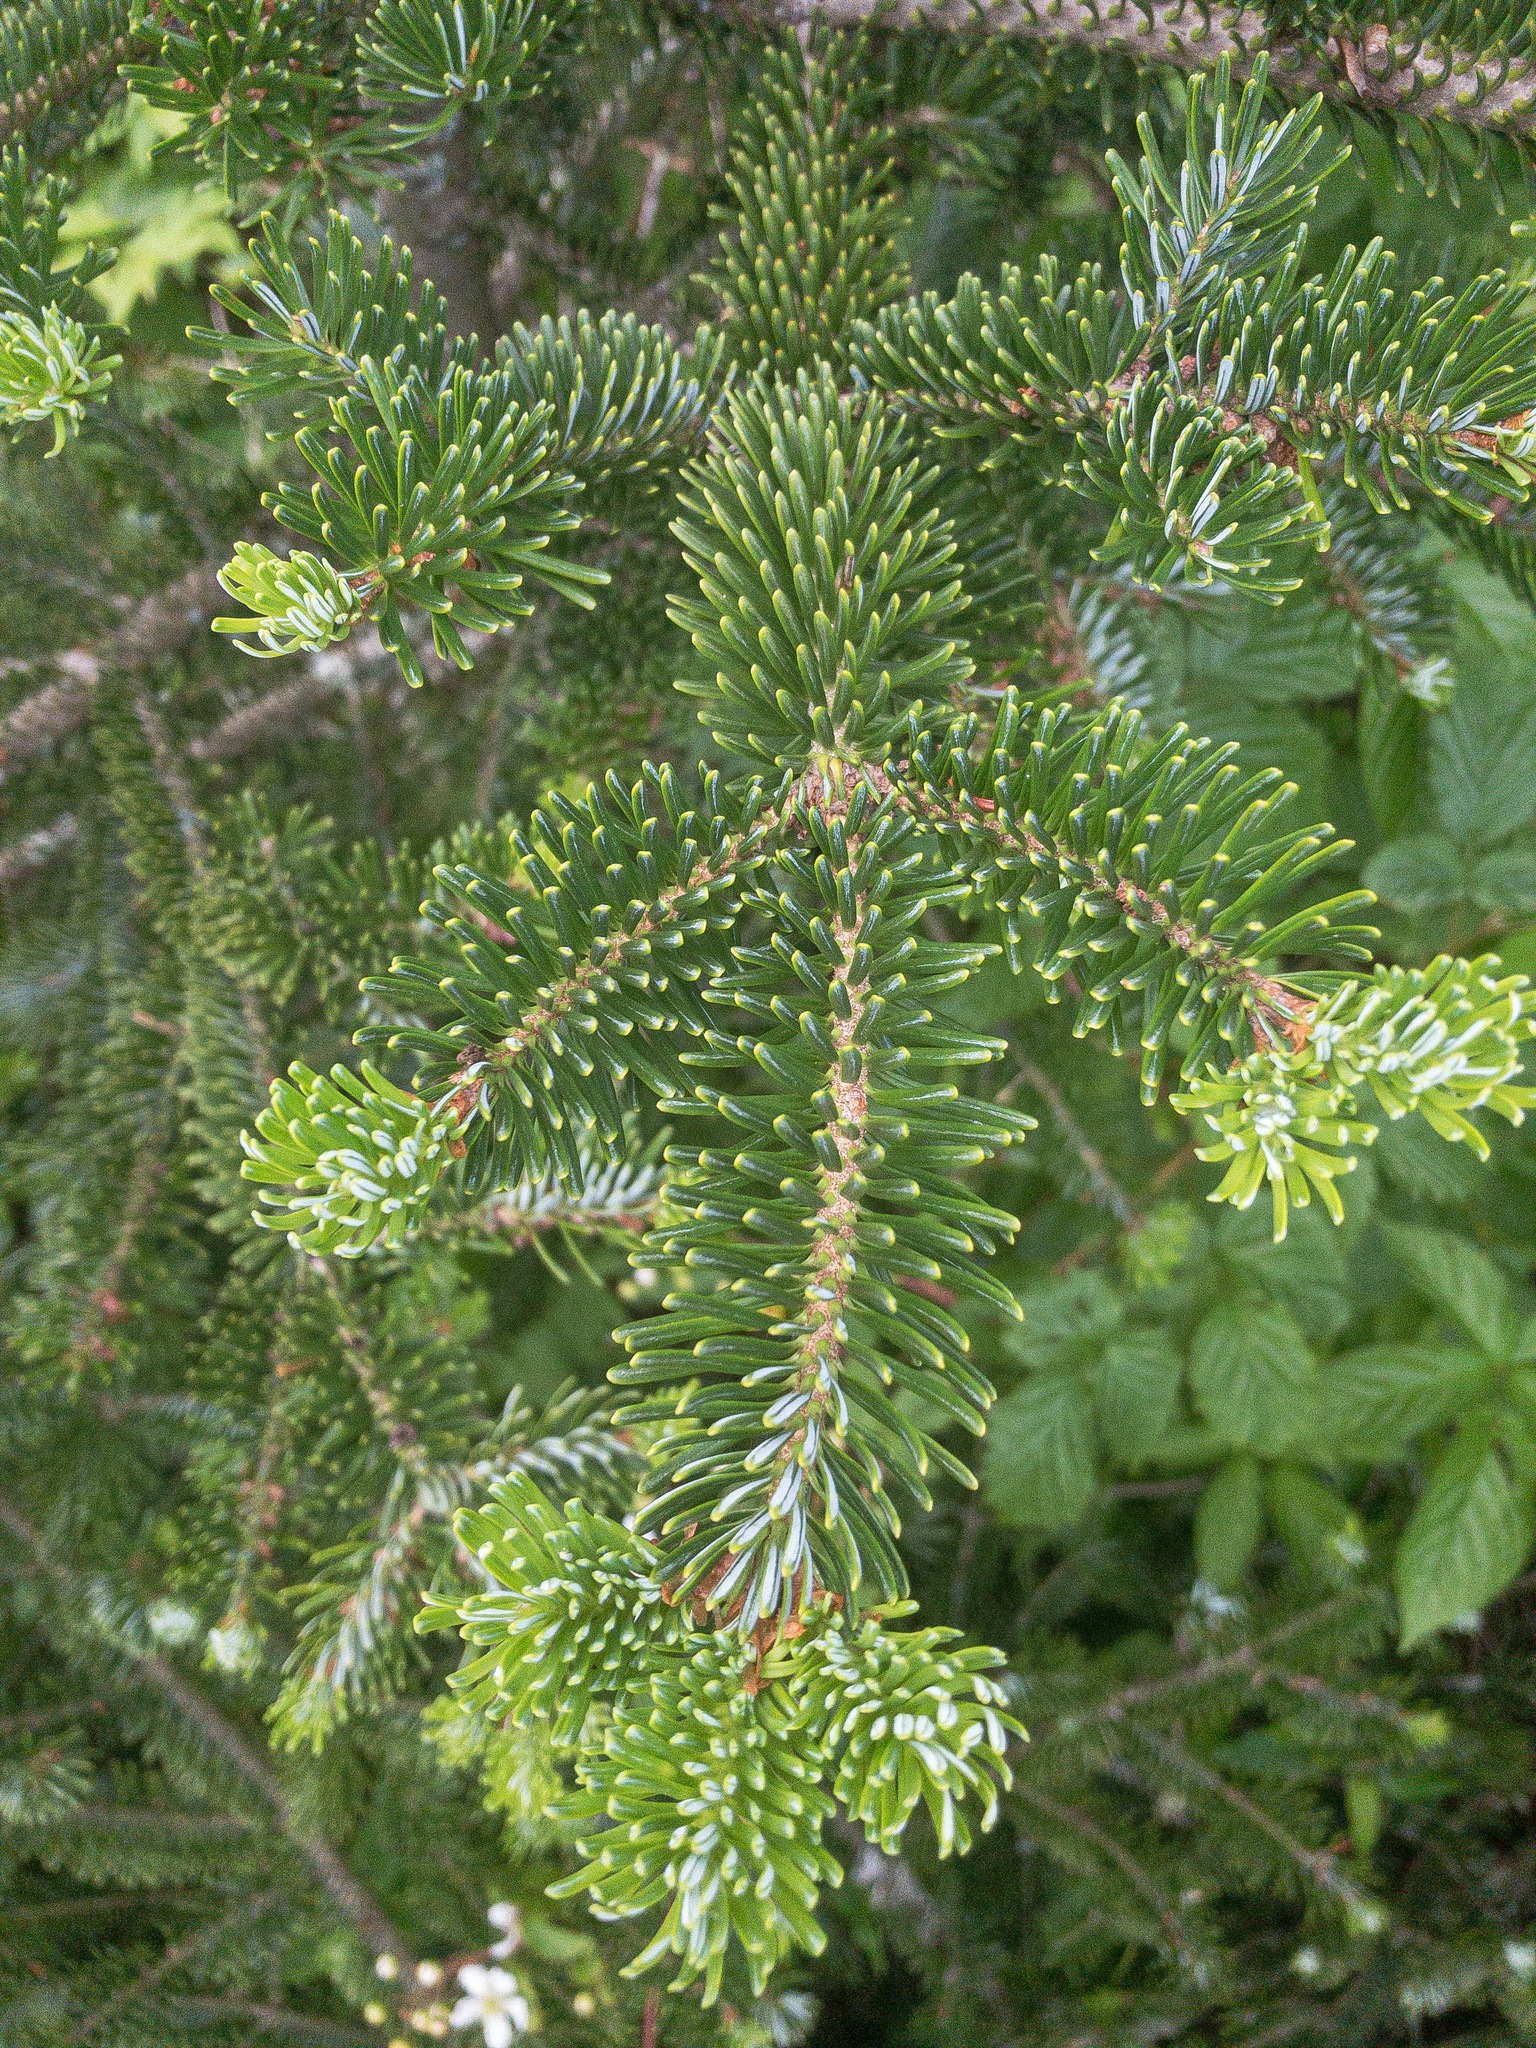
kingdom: Plantae
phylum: Tracheophyta
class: Pinopsida
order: Pinales
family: Pinaceae
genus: Abies
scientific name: Abies fraseri
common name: Fraser fir
